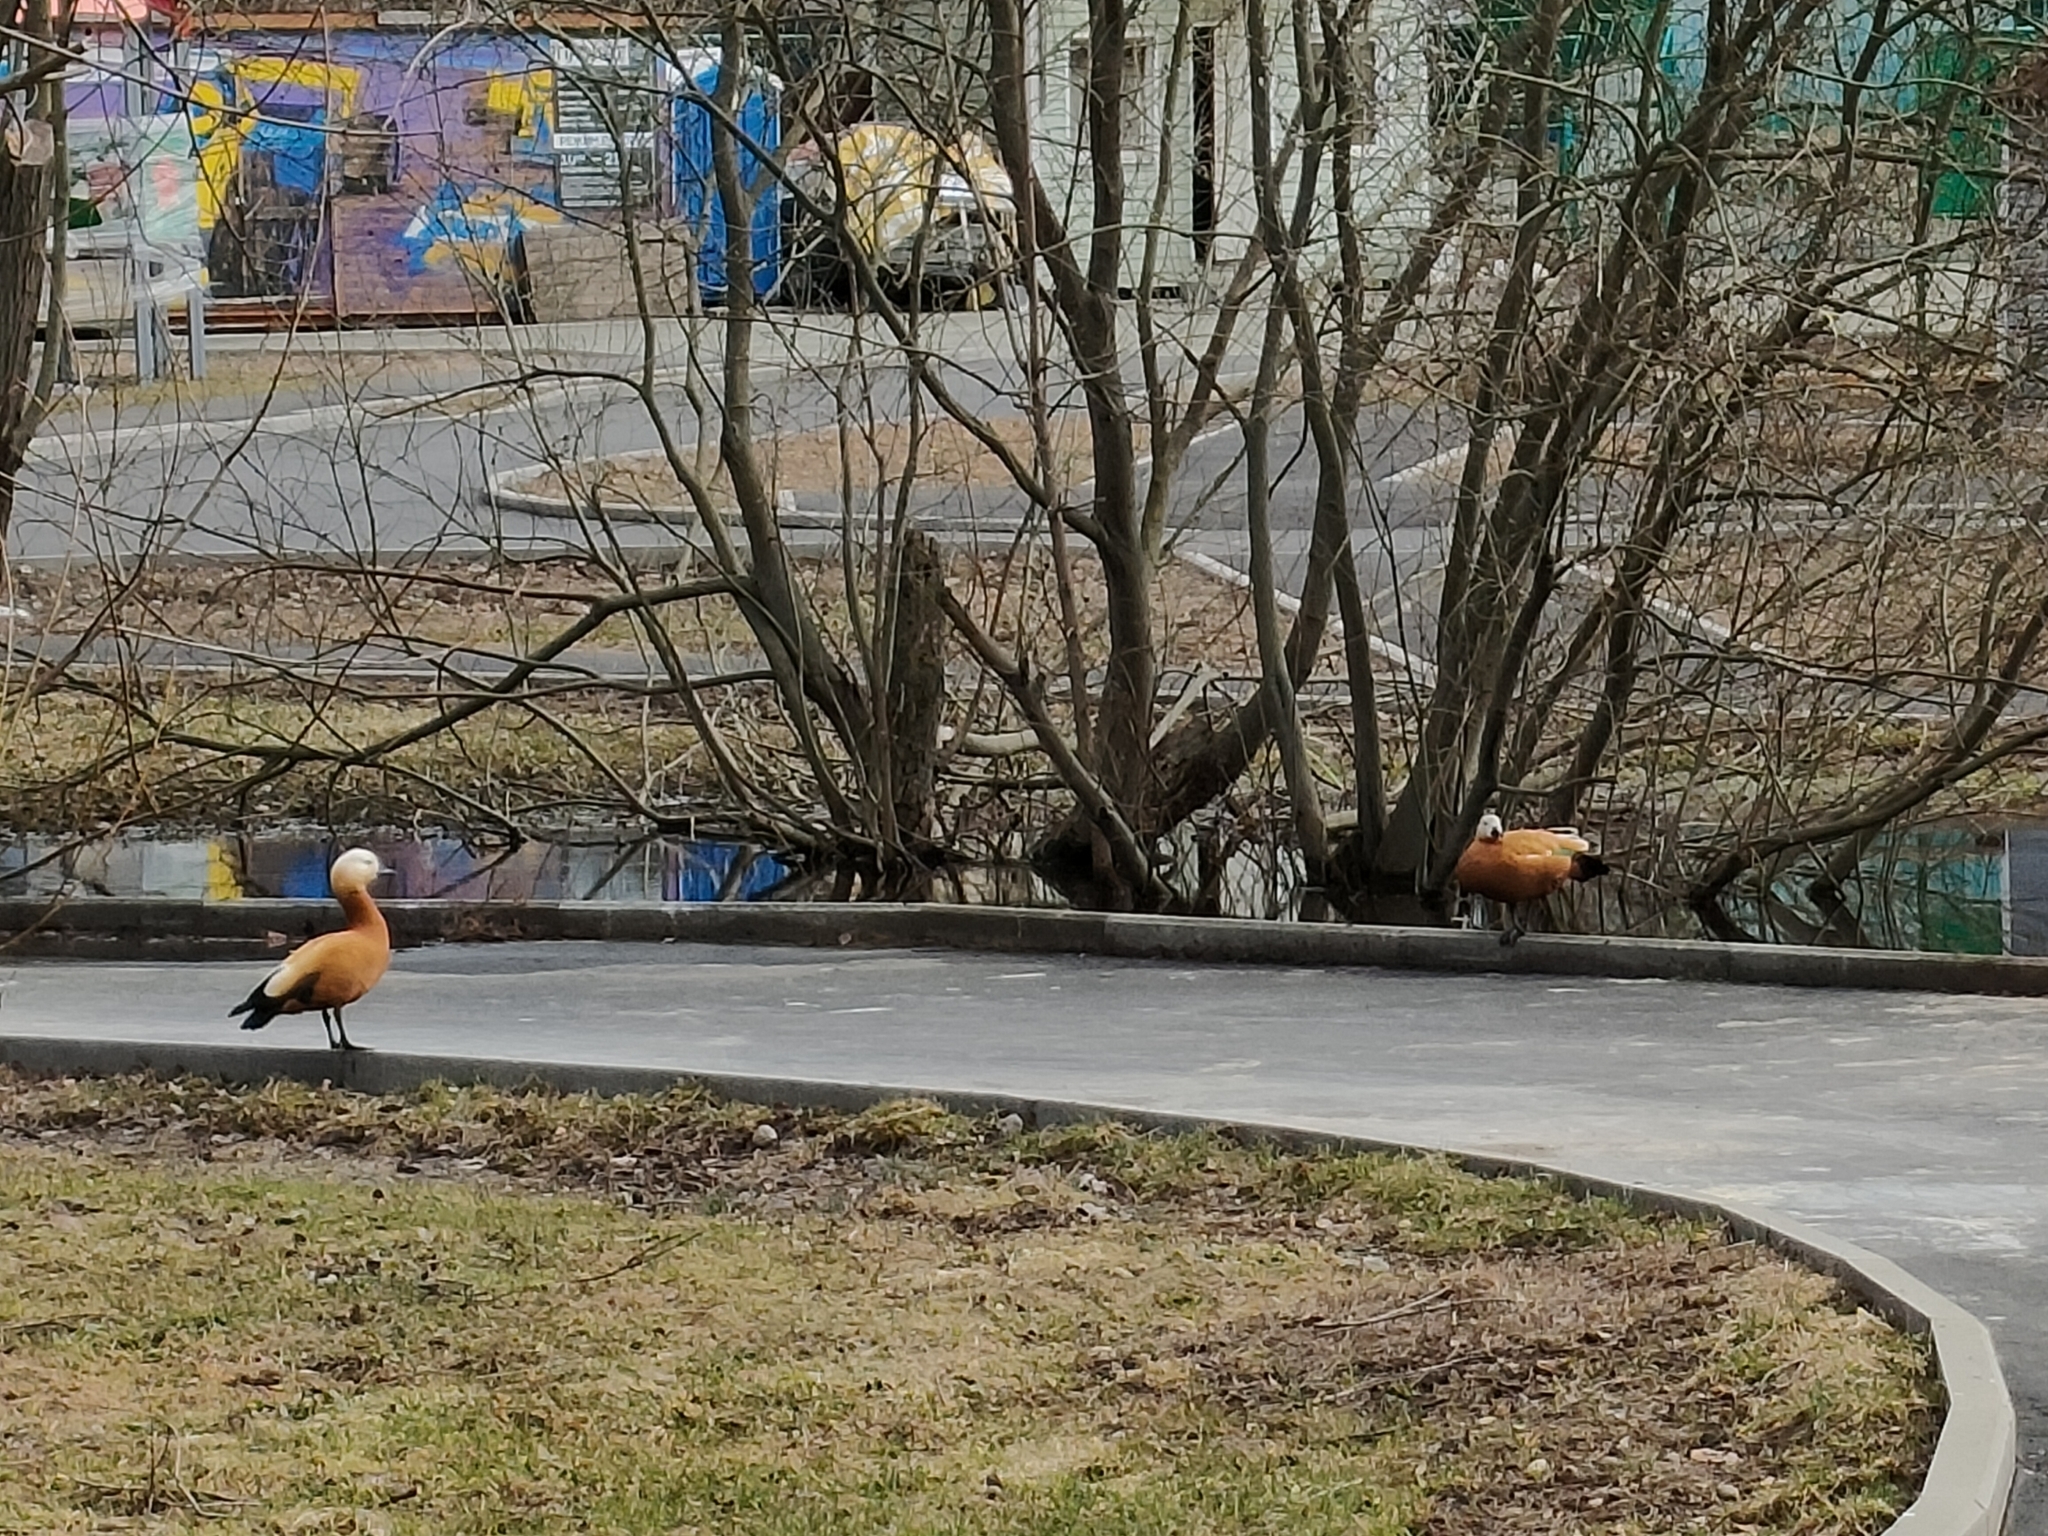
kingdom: Animalia
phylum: Chordata
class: Aves
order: Anseriformes
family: Anatidae
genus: Tadorna
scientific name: Tadorna ferruginea
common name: Ruddy shelduck
